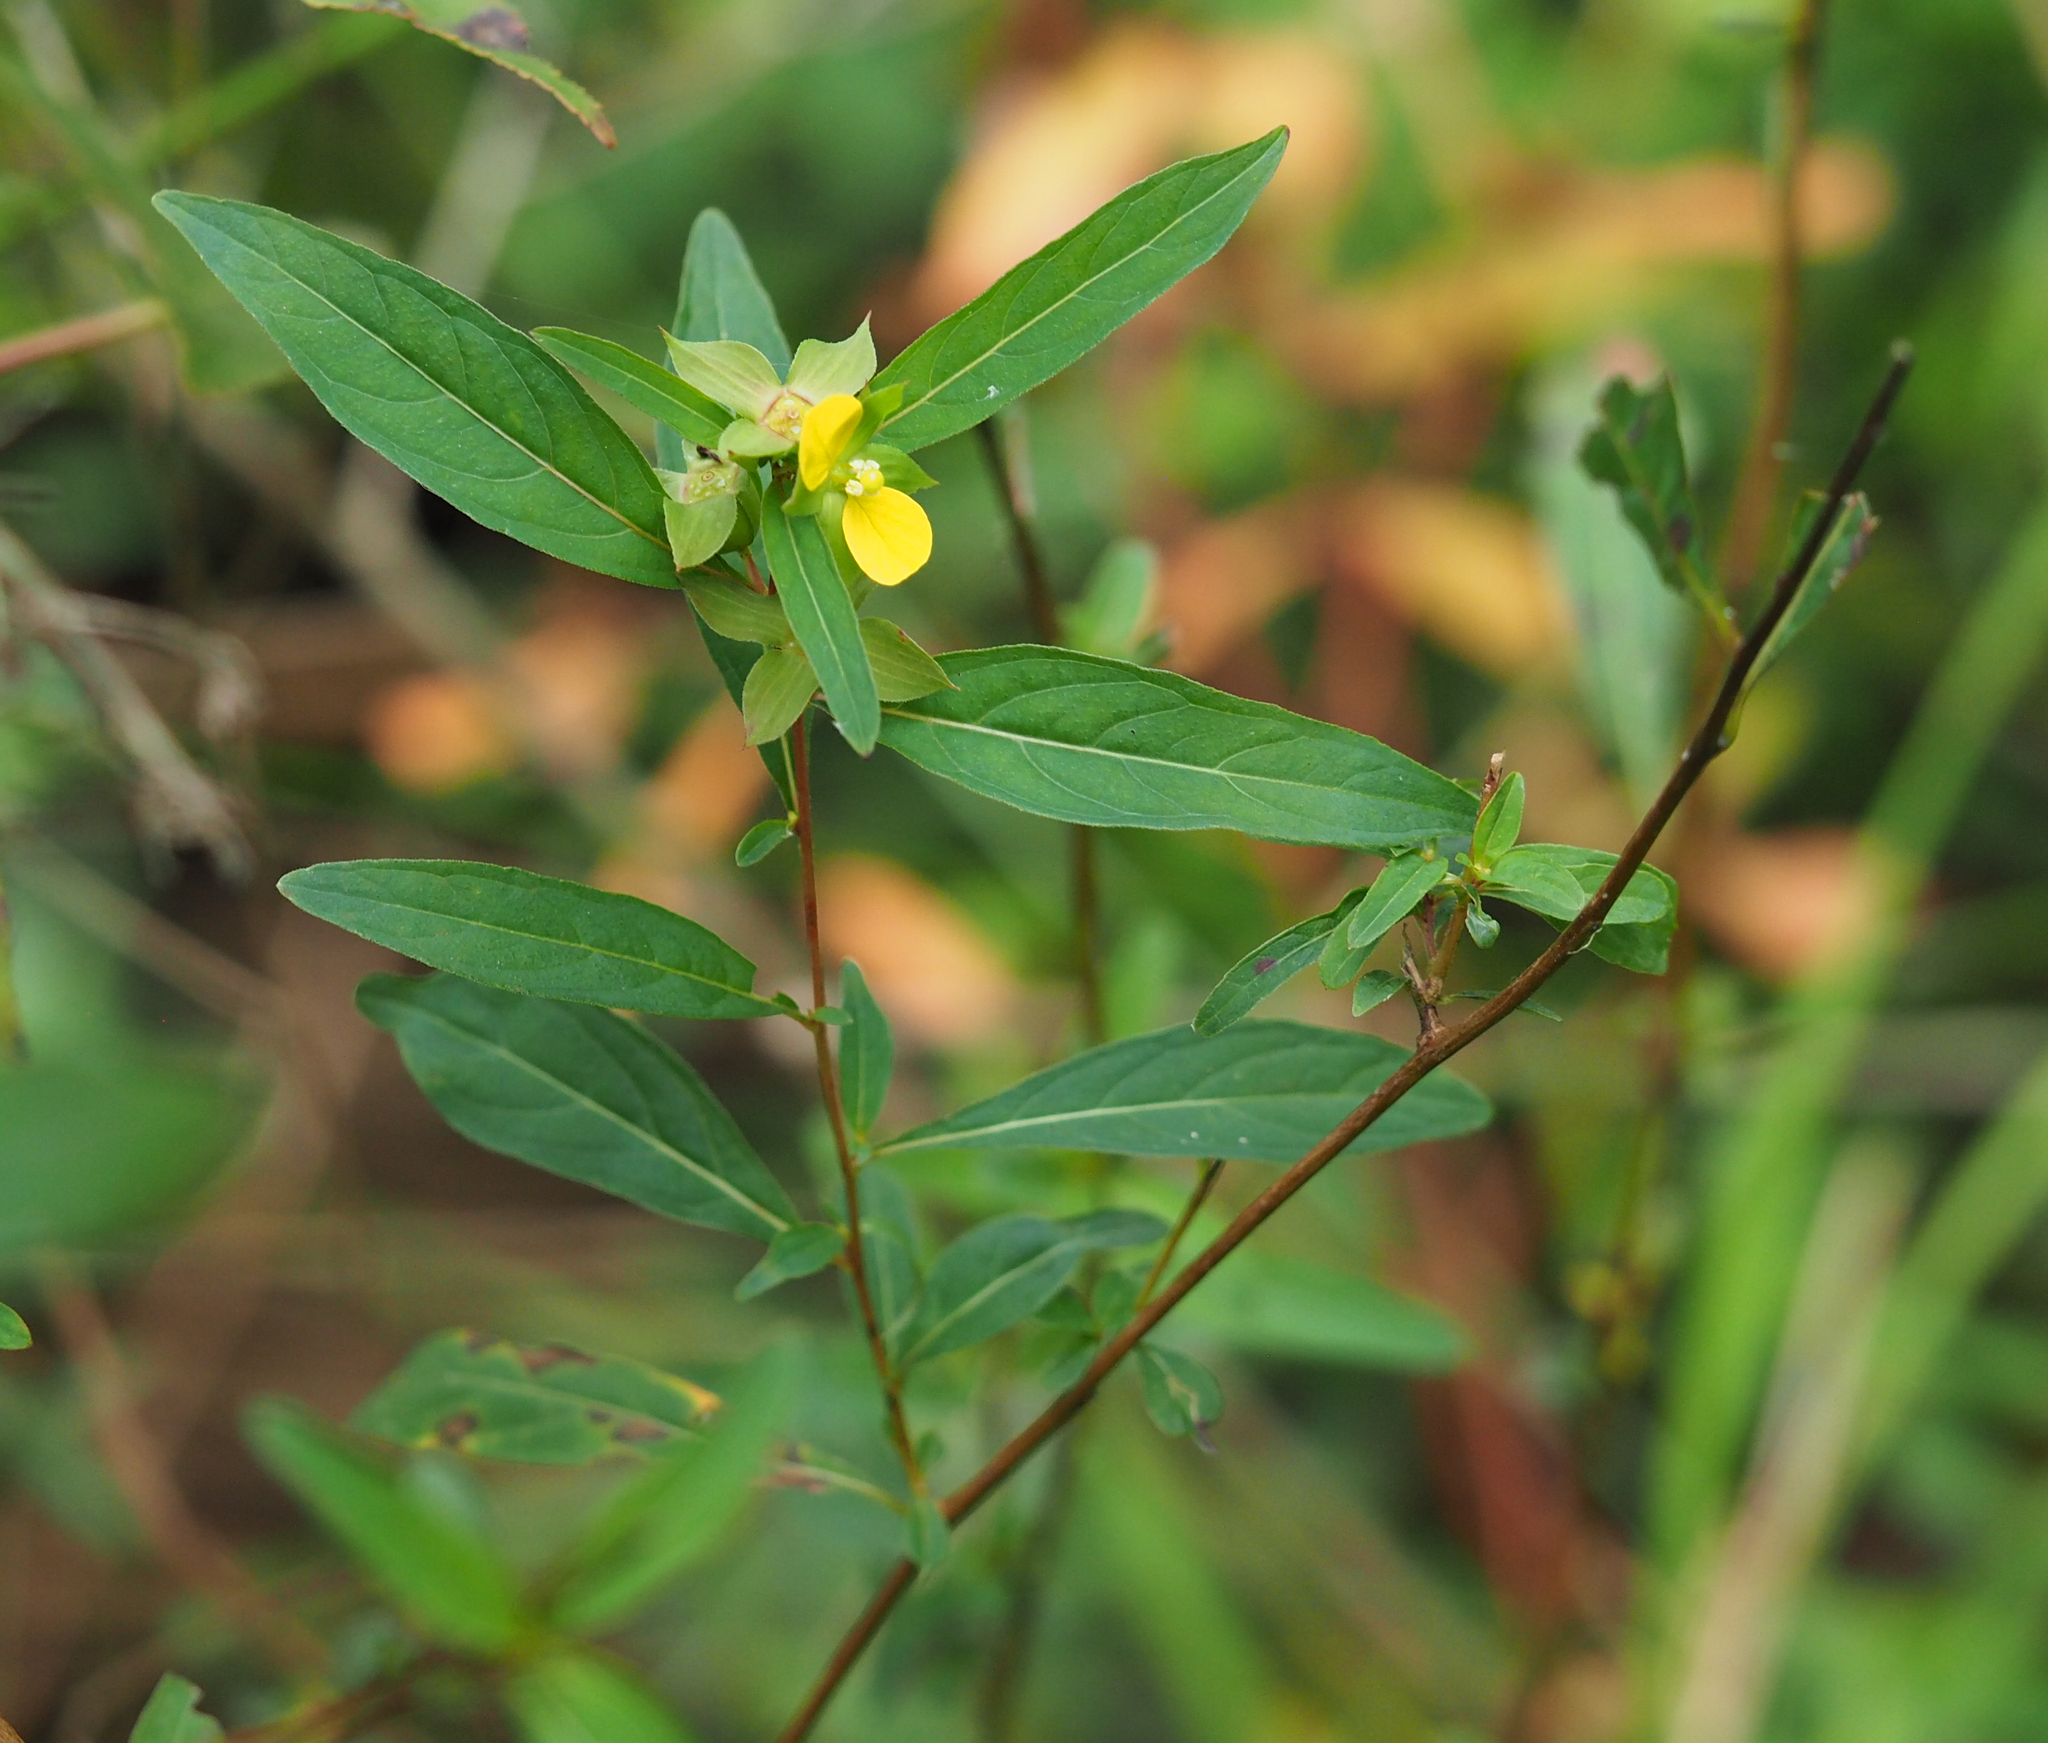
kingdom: Plantae
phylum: Tracheophyta
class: Magnoliopsida
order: Myrtales
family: Onagraceae
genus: Ludwigia
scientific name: Ludwigia alternifolia
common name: Rattlebox
